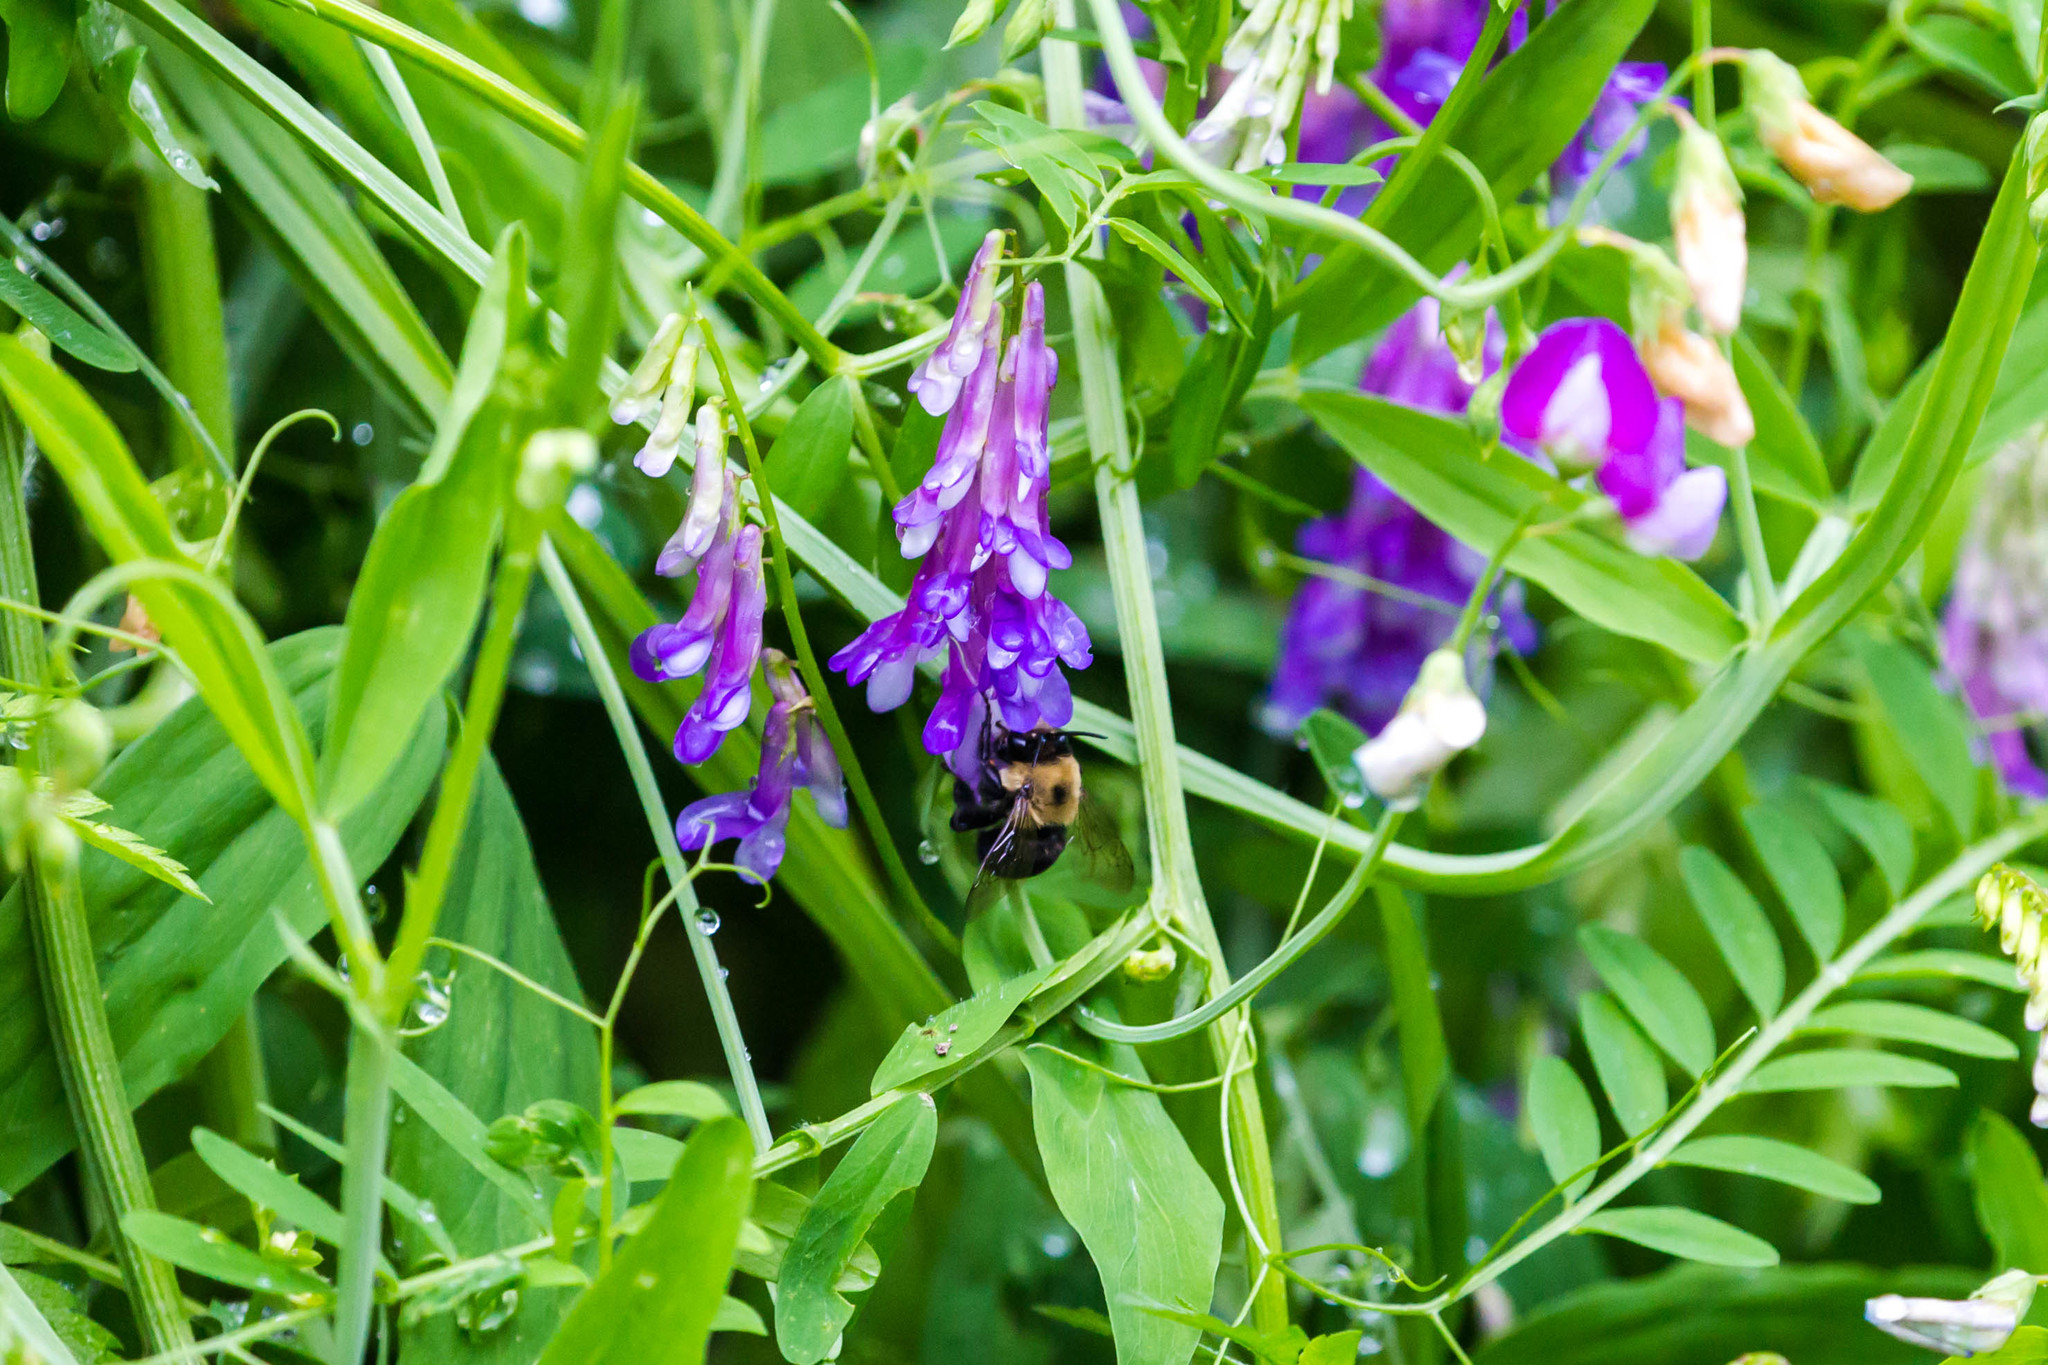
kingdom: Animalia
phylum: Arthropoda
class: Insecta
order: Hymenoptera
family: Apidae
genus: Anthophora
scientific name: Anthophora abrupta
